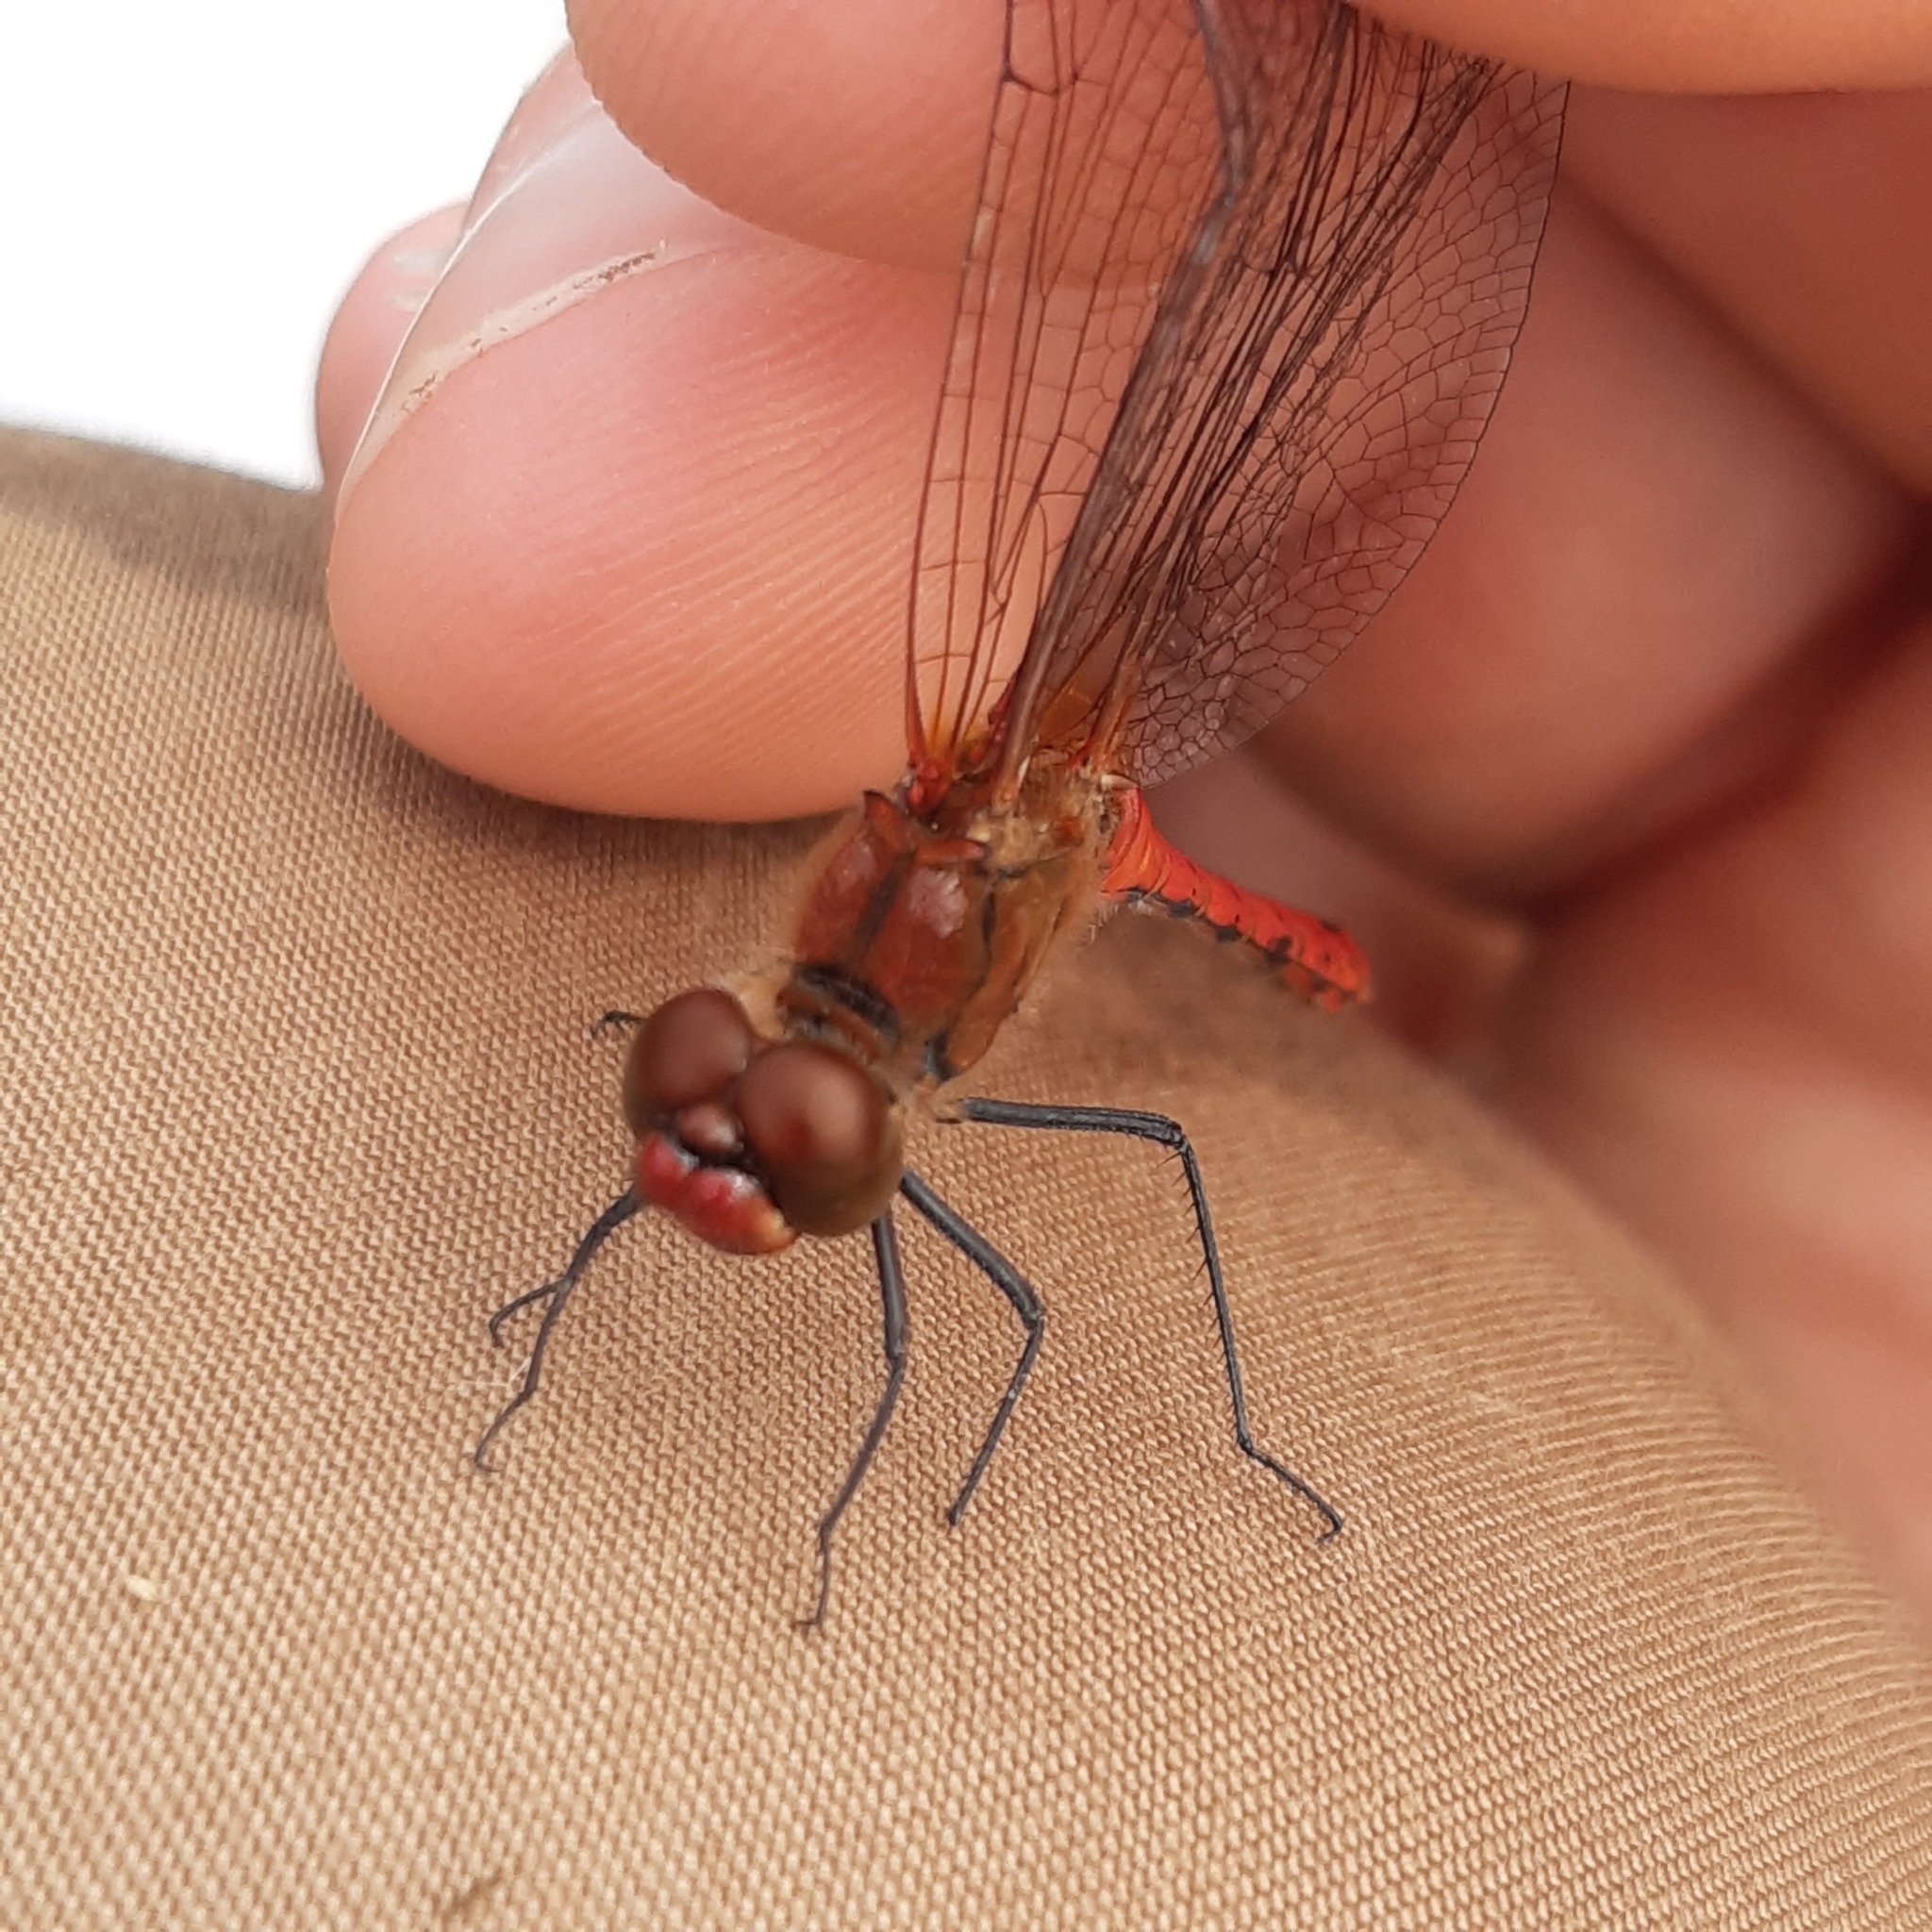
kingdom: Animalia
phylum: Arthropoda
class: Insecta
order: Odonata
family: Libellulidae
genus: Sympetrum
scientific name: Sympetrum sanguineum
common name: Ruddy darter
